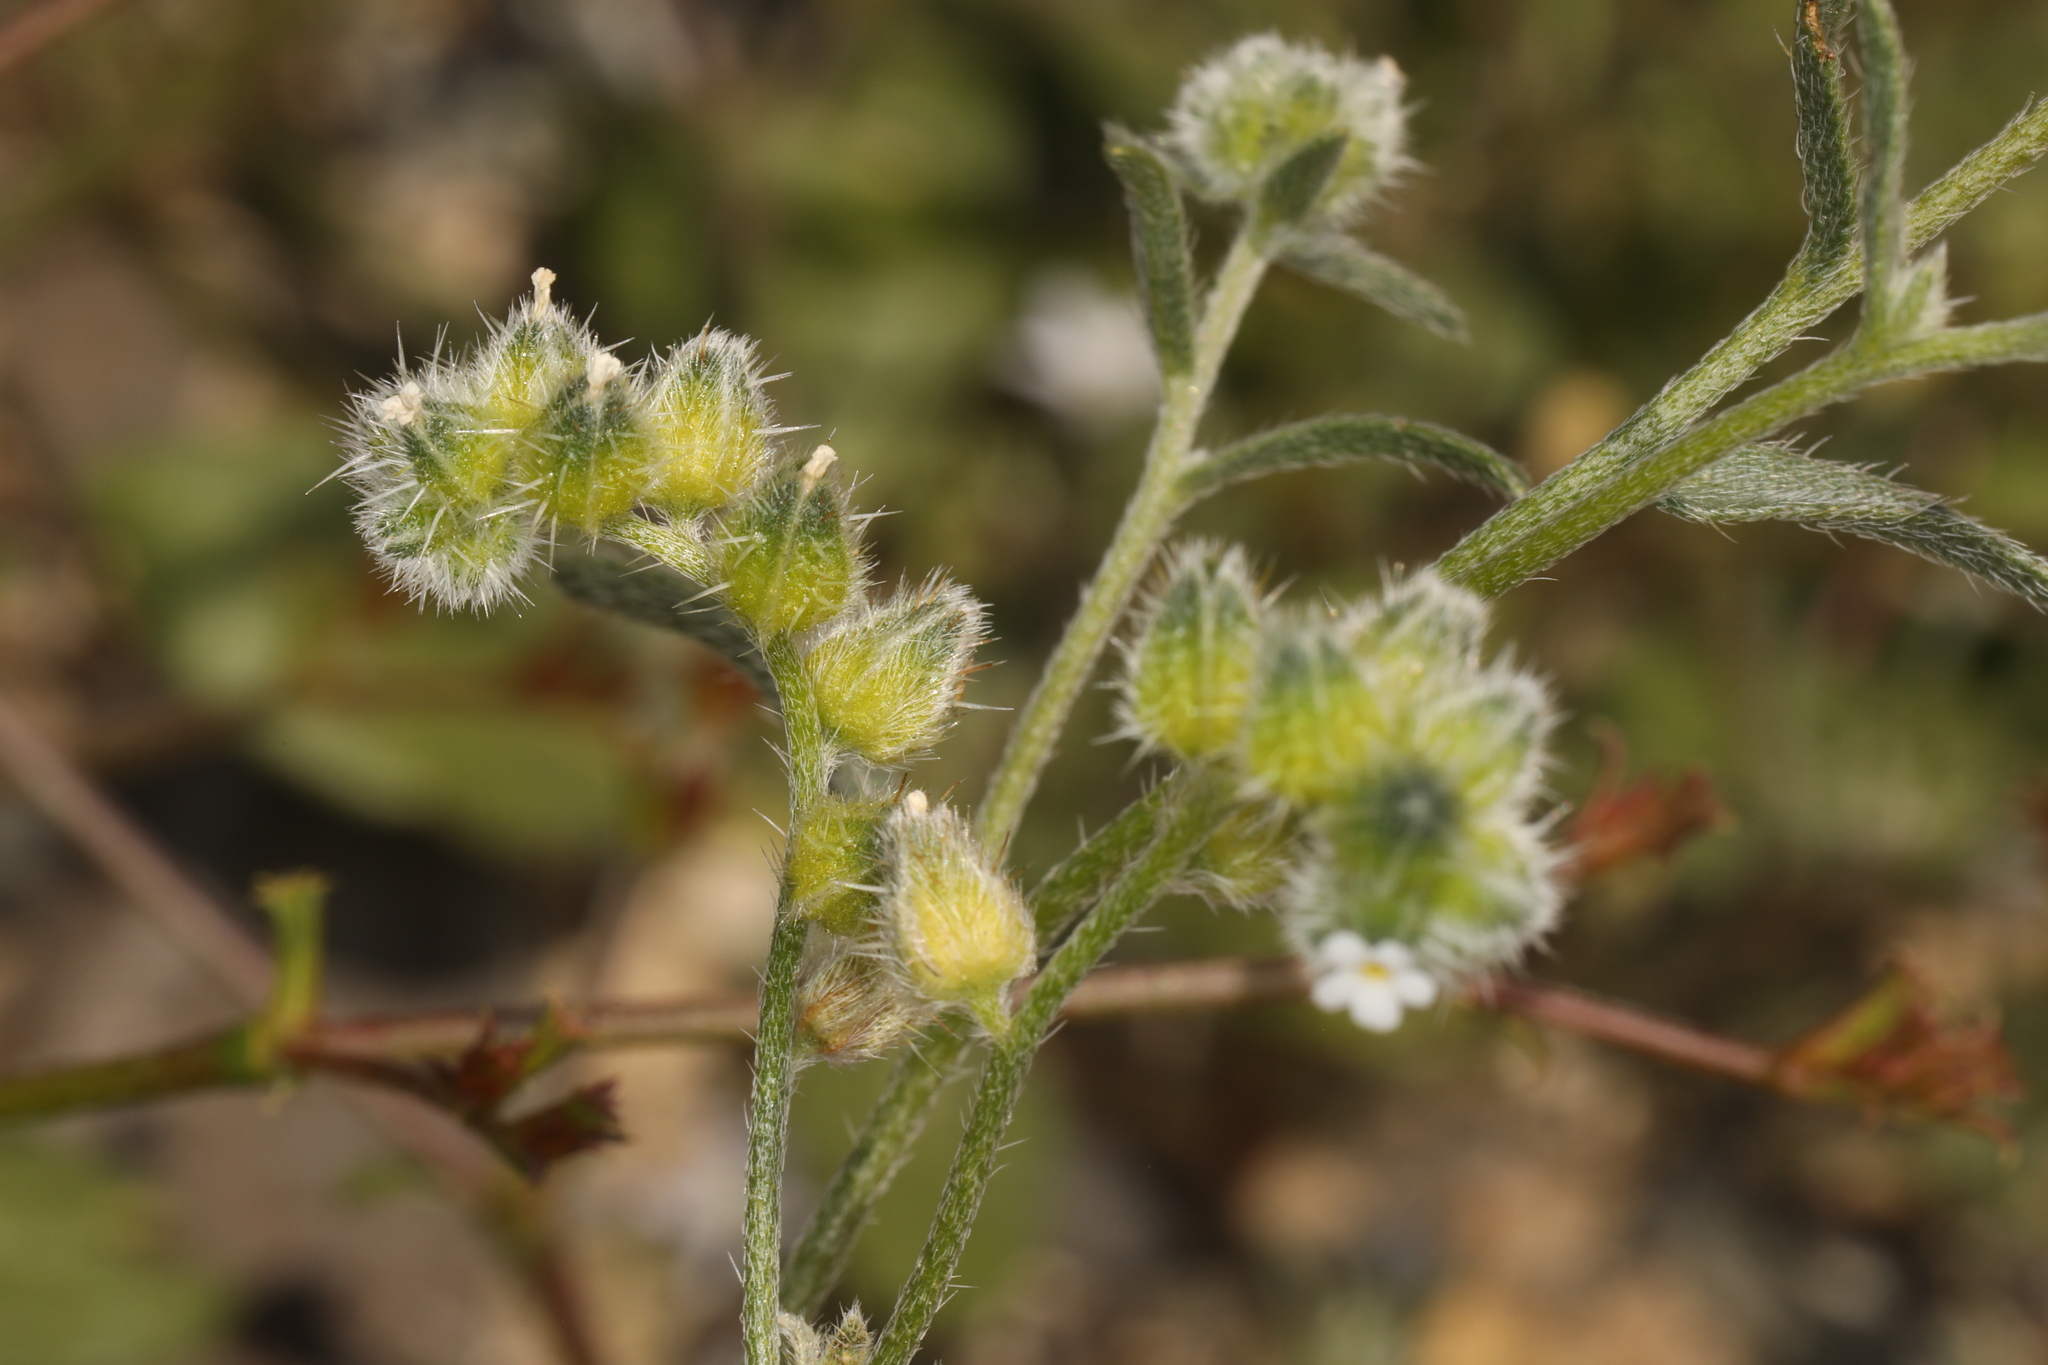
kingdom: Plantae
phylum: Tracheophyta
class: Magnoliopsida
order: Boraginales
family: Boraginaceae
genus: Cryptantha
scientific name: Cryptantha pterocarya
